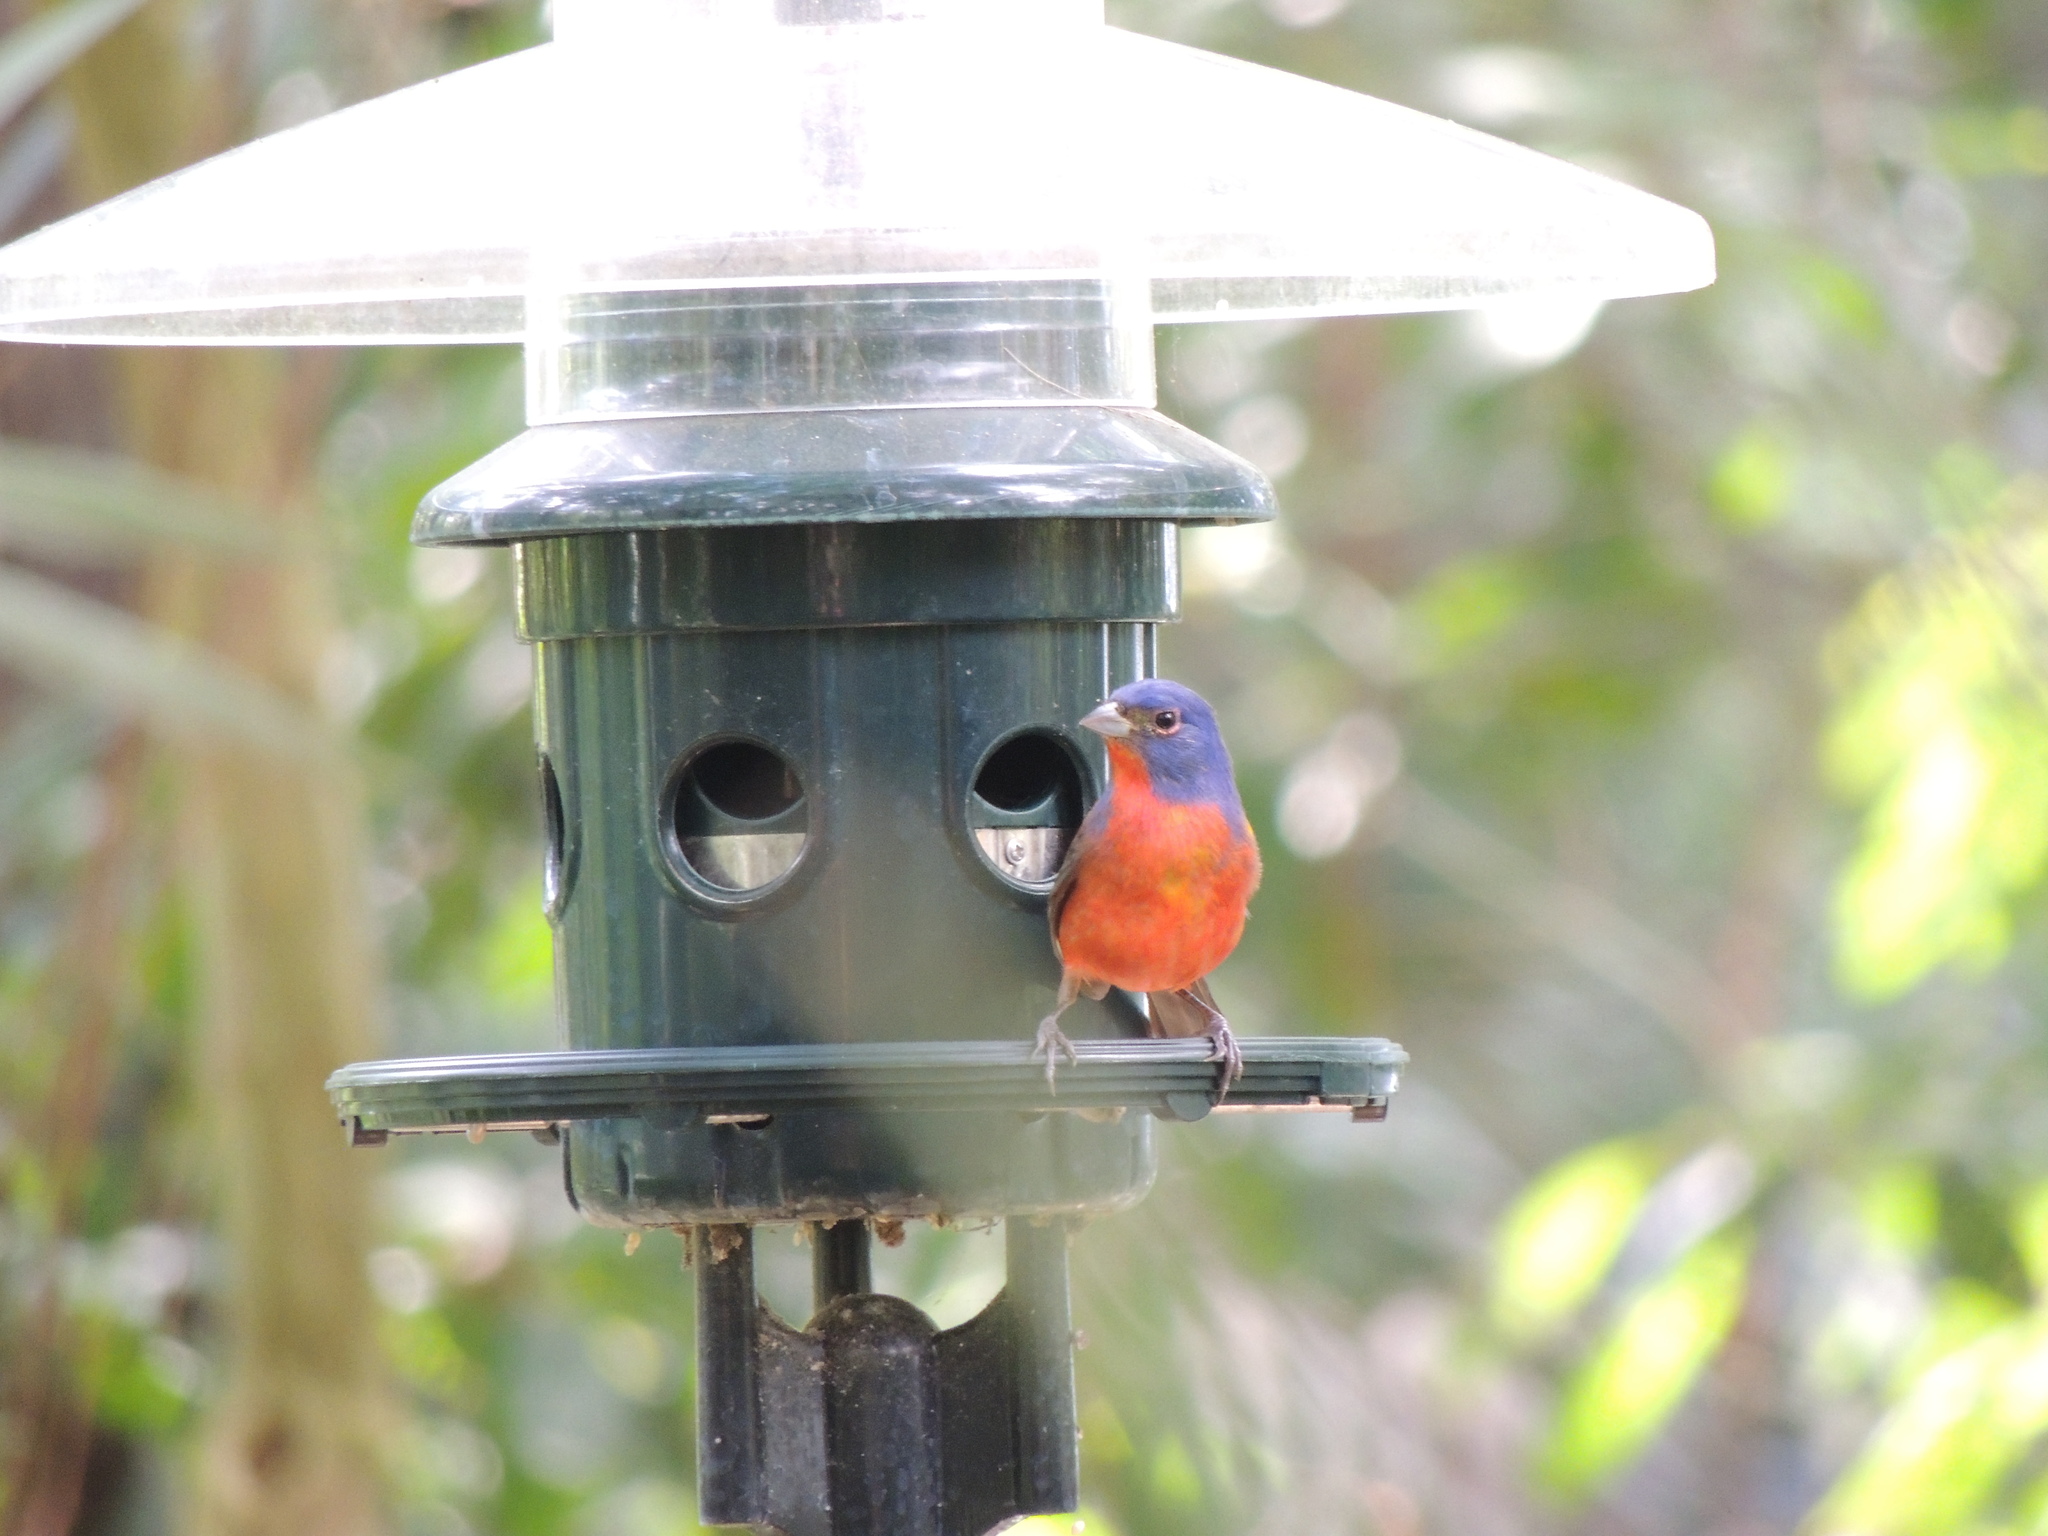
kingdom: Animalia
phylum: Chordata
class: Aves
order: Passeriformes
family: Cardinalidae
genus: Passerina
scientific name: Passerina ciris
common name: Painted bunting
